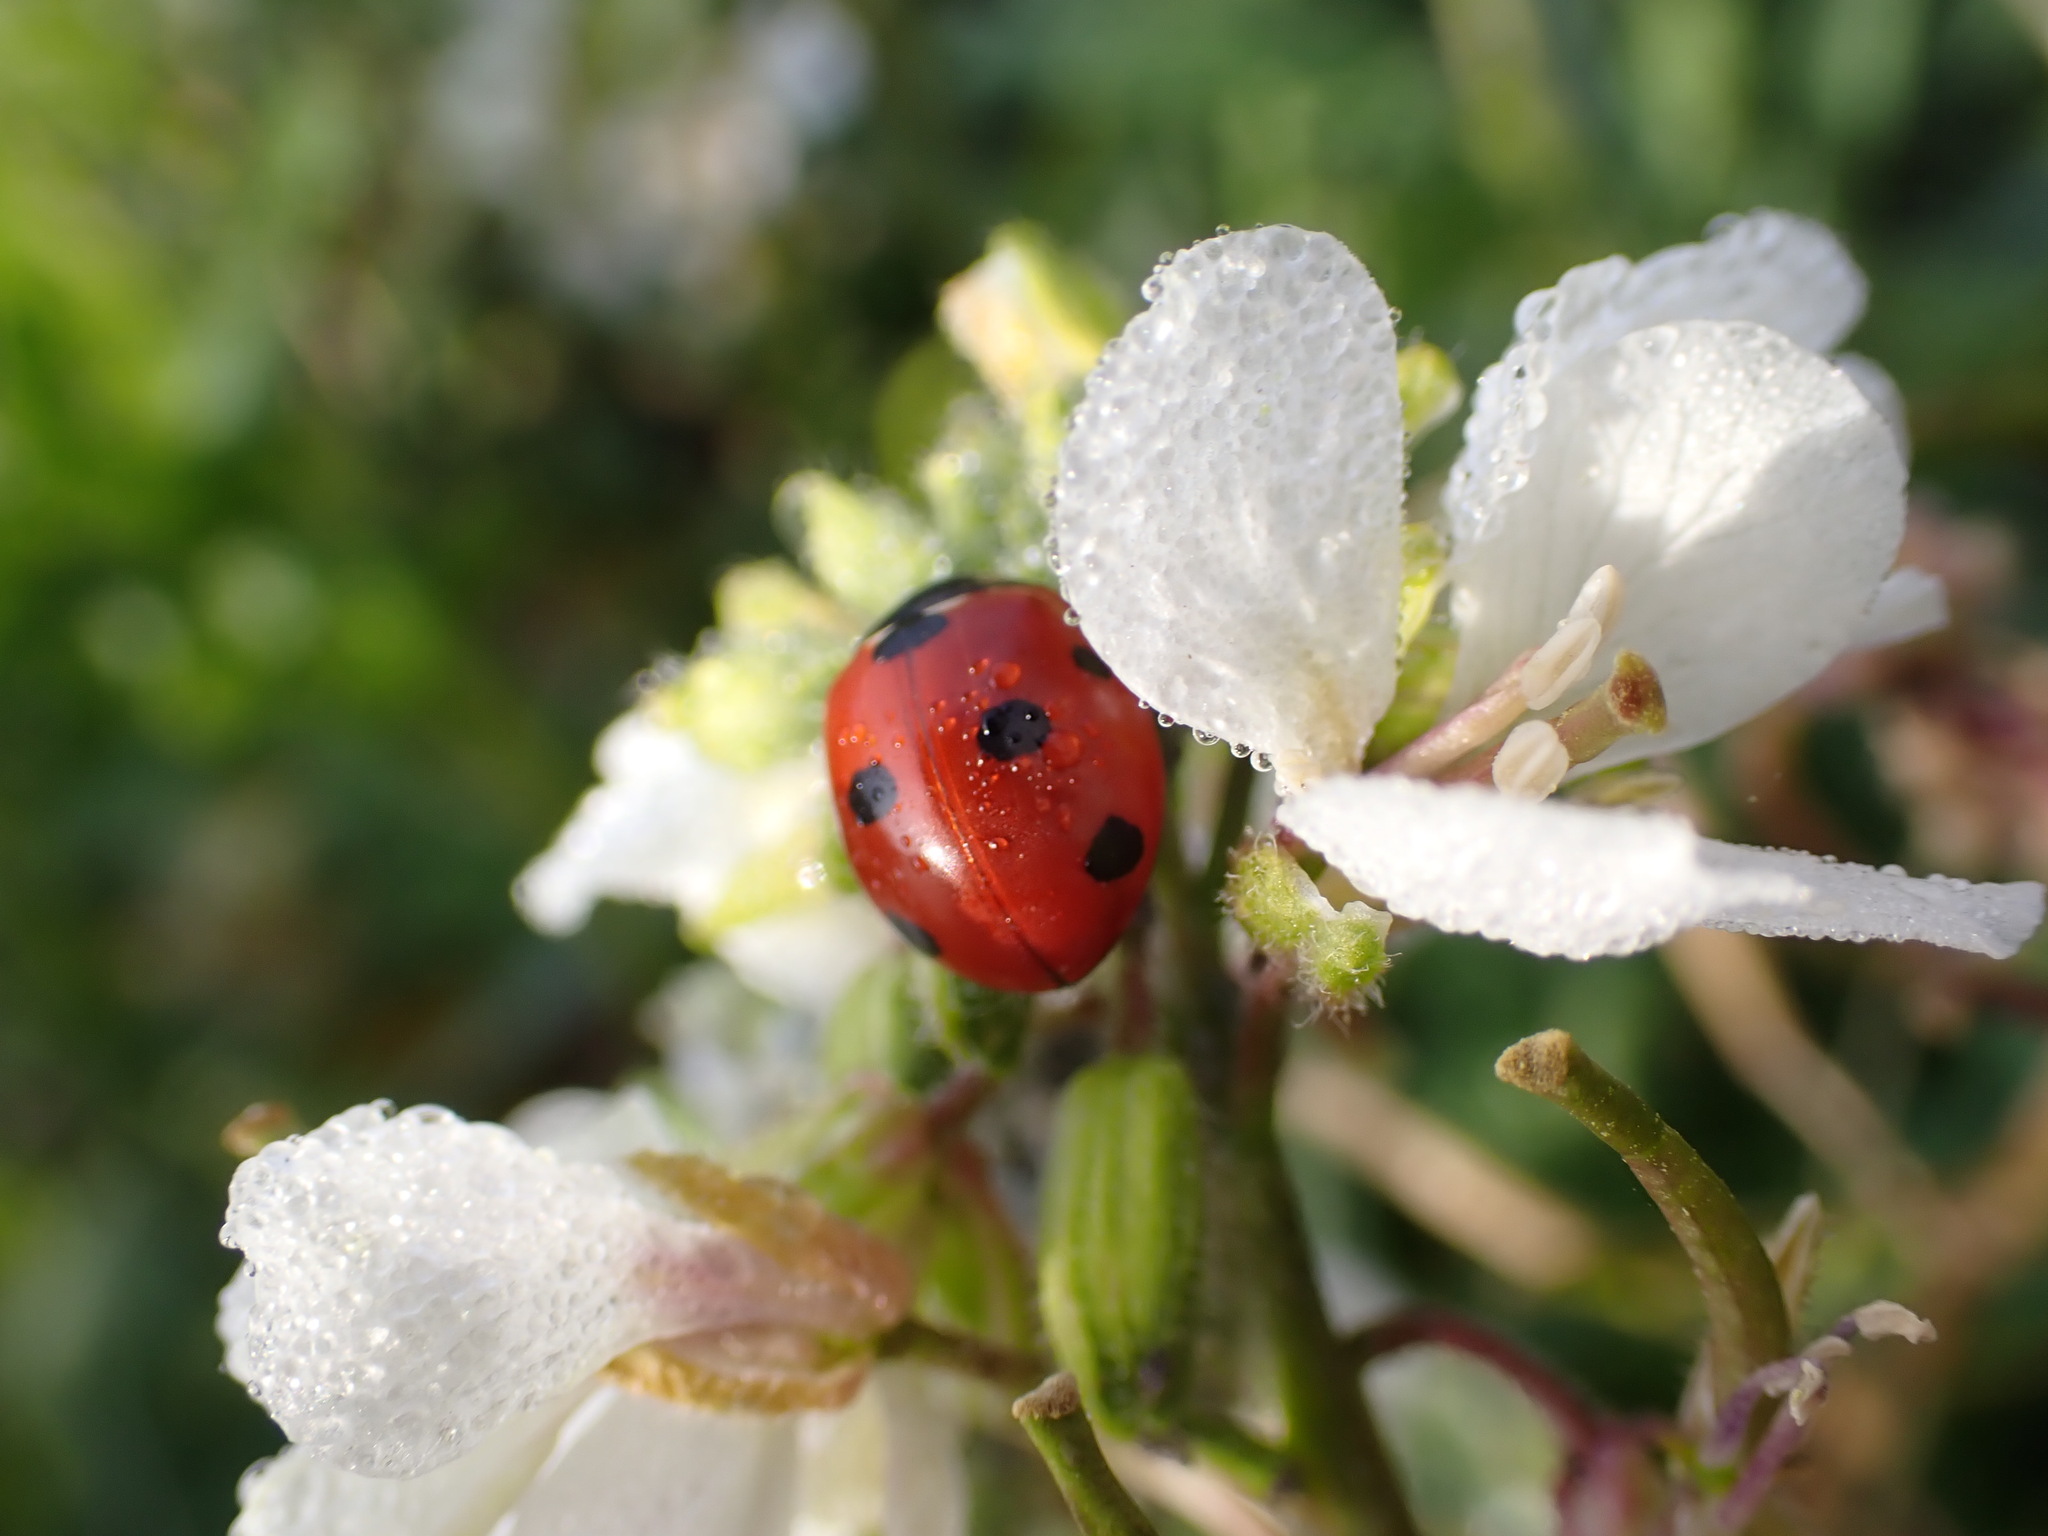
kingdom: Animalia
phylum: Arthropoda
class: Insecta
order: Coleoptera
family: Coccinellidae
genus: Coccinella
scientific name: Coccinella septempunctata
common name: Sevenspotted lady beetle
